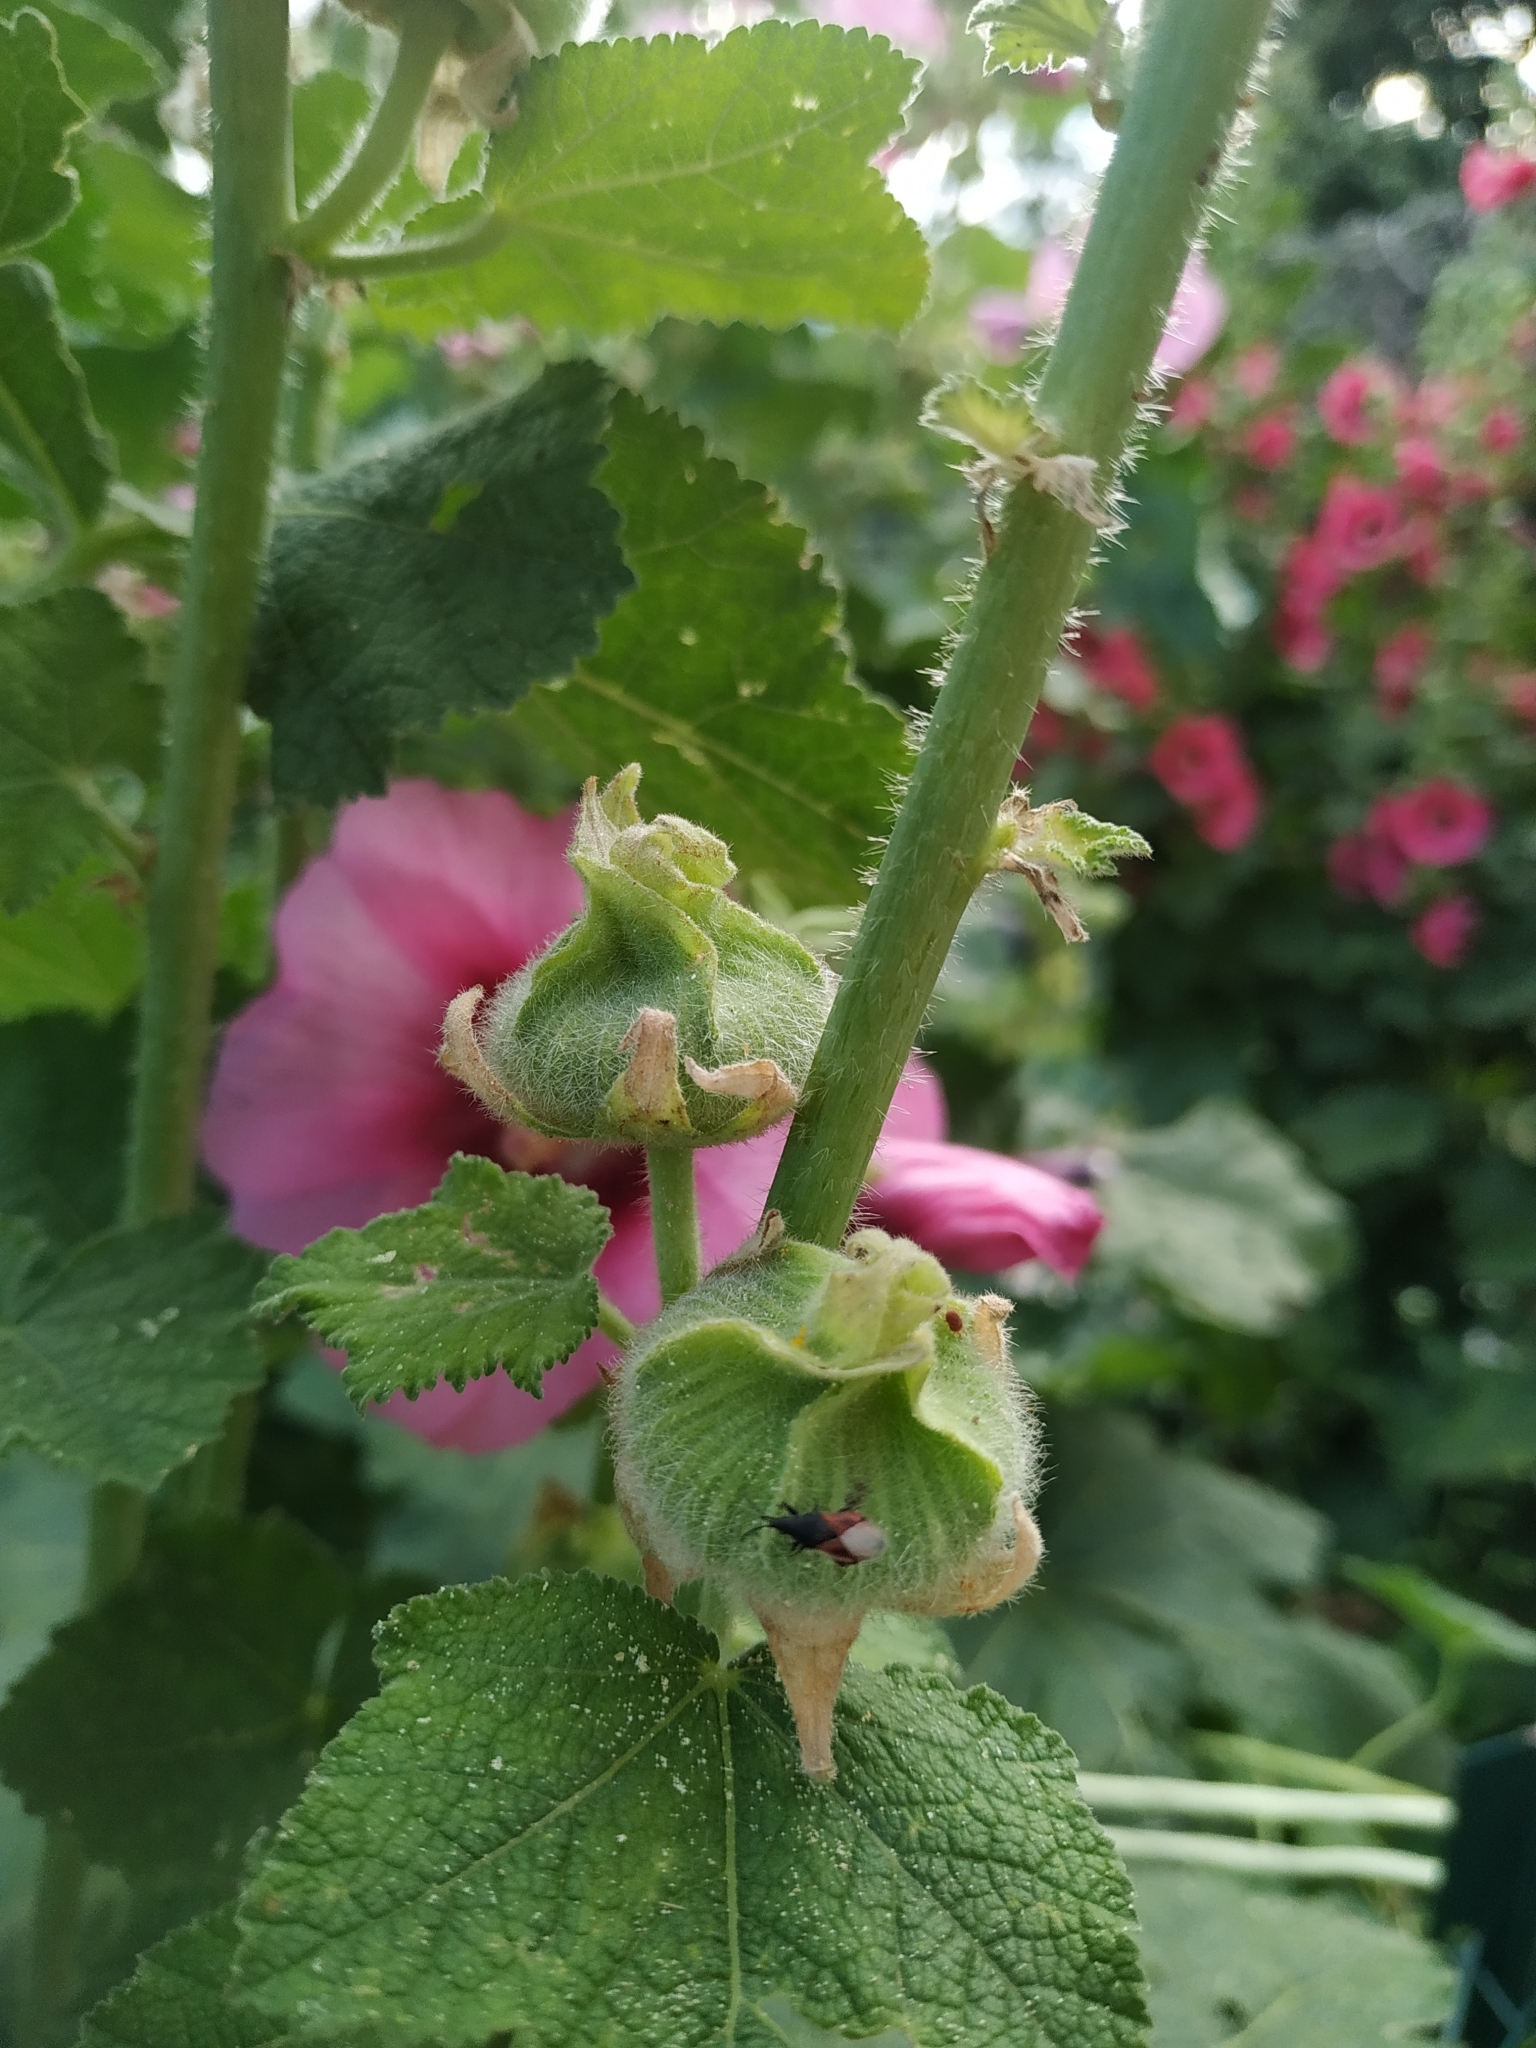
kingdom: Animalia
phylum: Arthropoda
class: Insecta
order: Hemiptera
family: Oxycarenidae
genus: Oxycarenus
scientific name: Oxycarenus lavaterae
